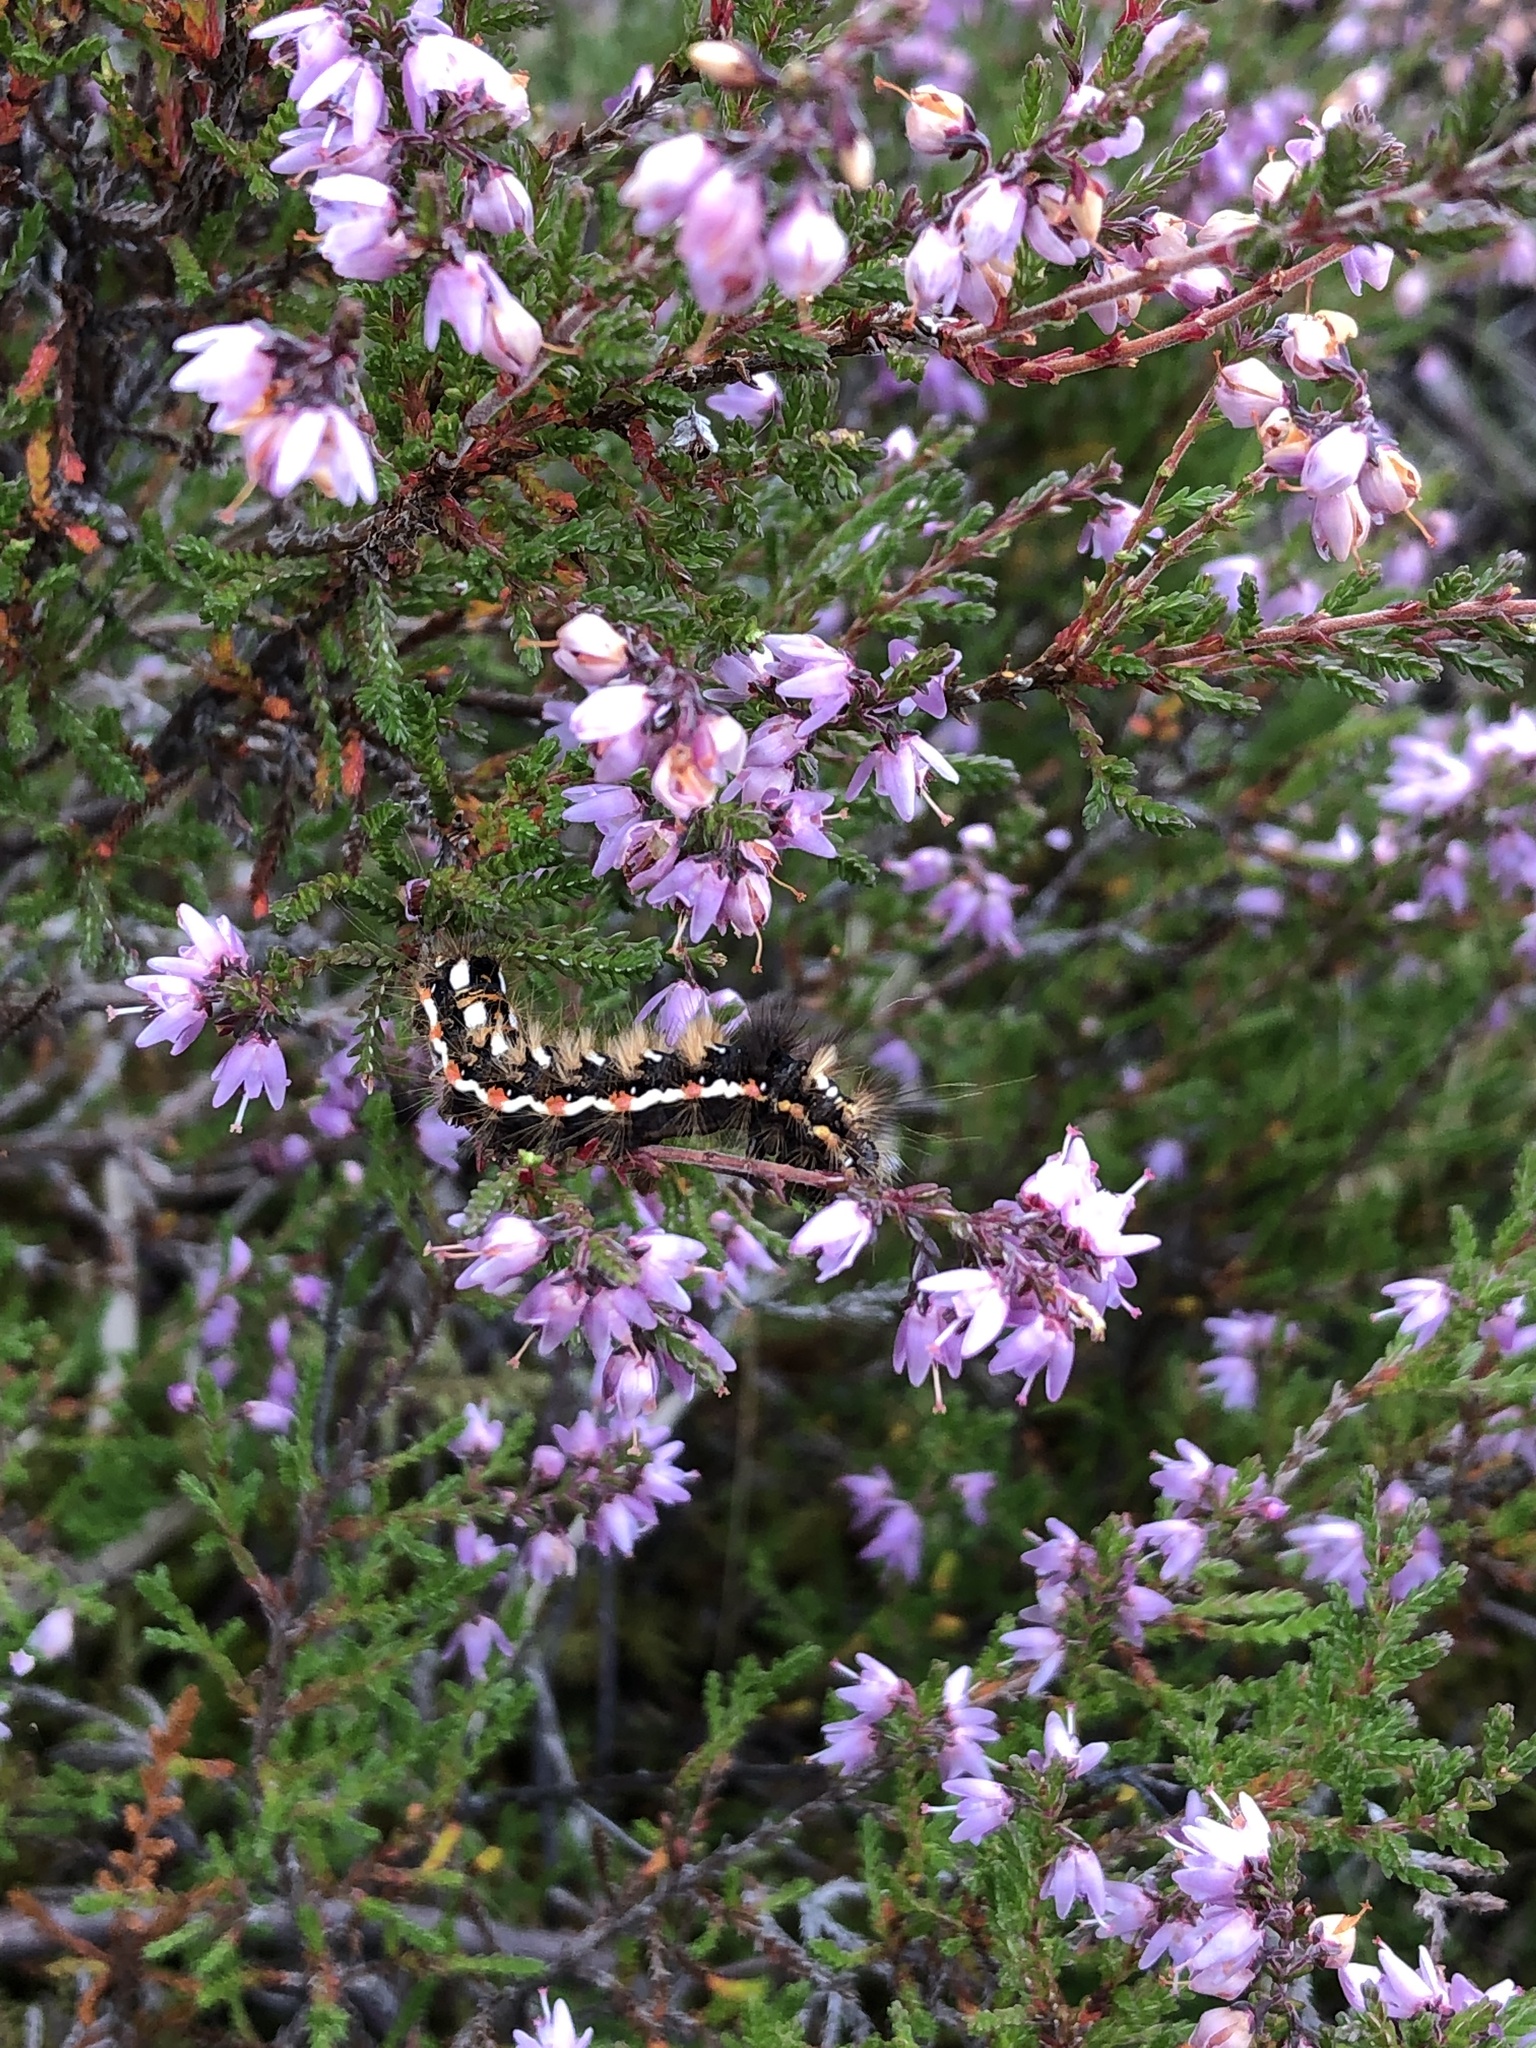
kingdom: Animalia
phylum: Arthropoda
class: Insecta
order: Lepidoptera
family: Noctuidae
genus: Acronicta
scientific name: Acronicta rumicis
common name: Knot grass
